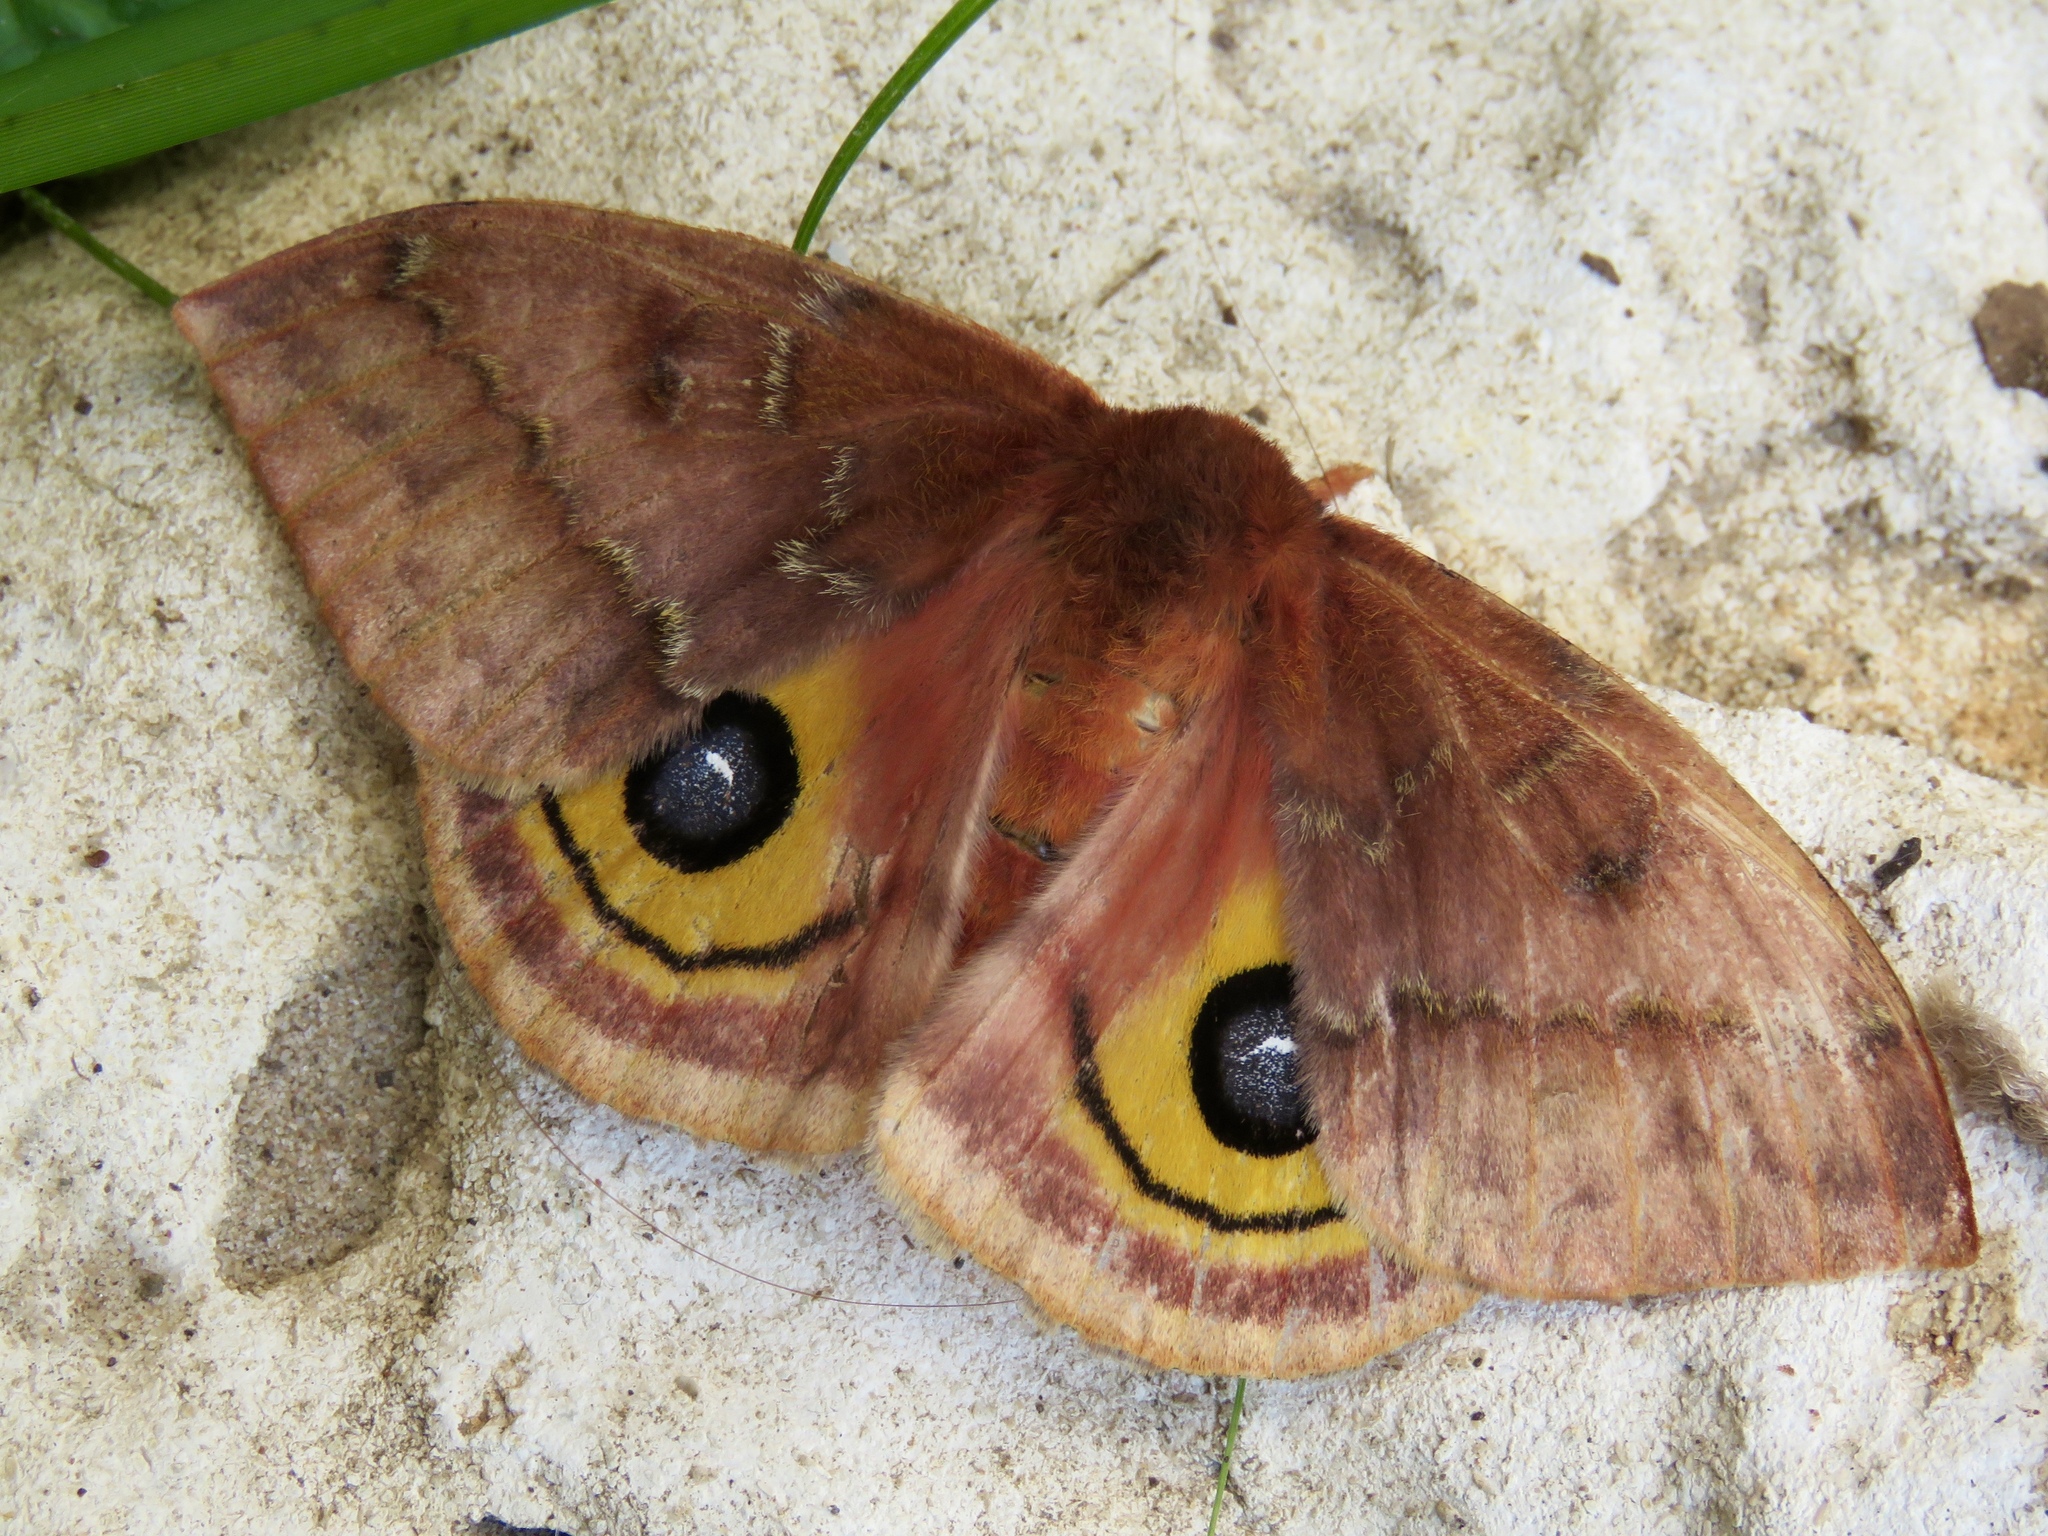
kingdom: Animalia
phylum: Arthropoda
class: Insecta
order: Lepidoptera
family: Saturniidae
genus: Automeris
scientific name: Automeris io
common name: Io moth
